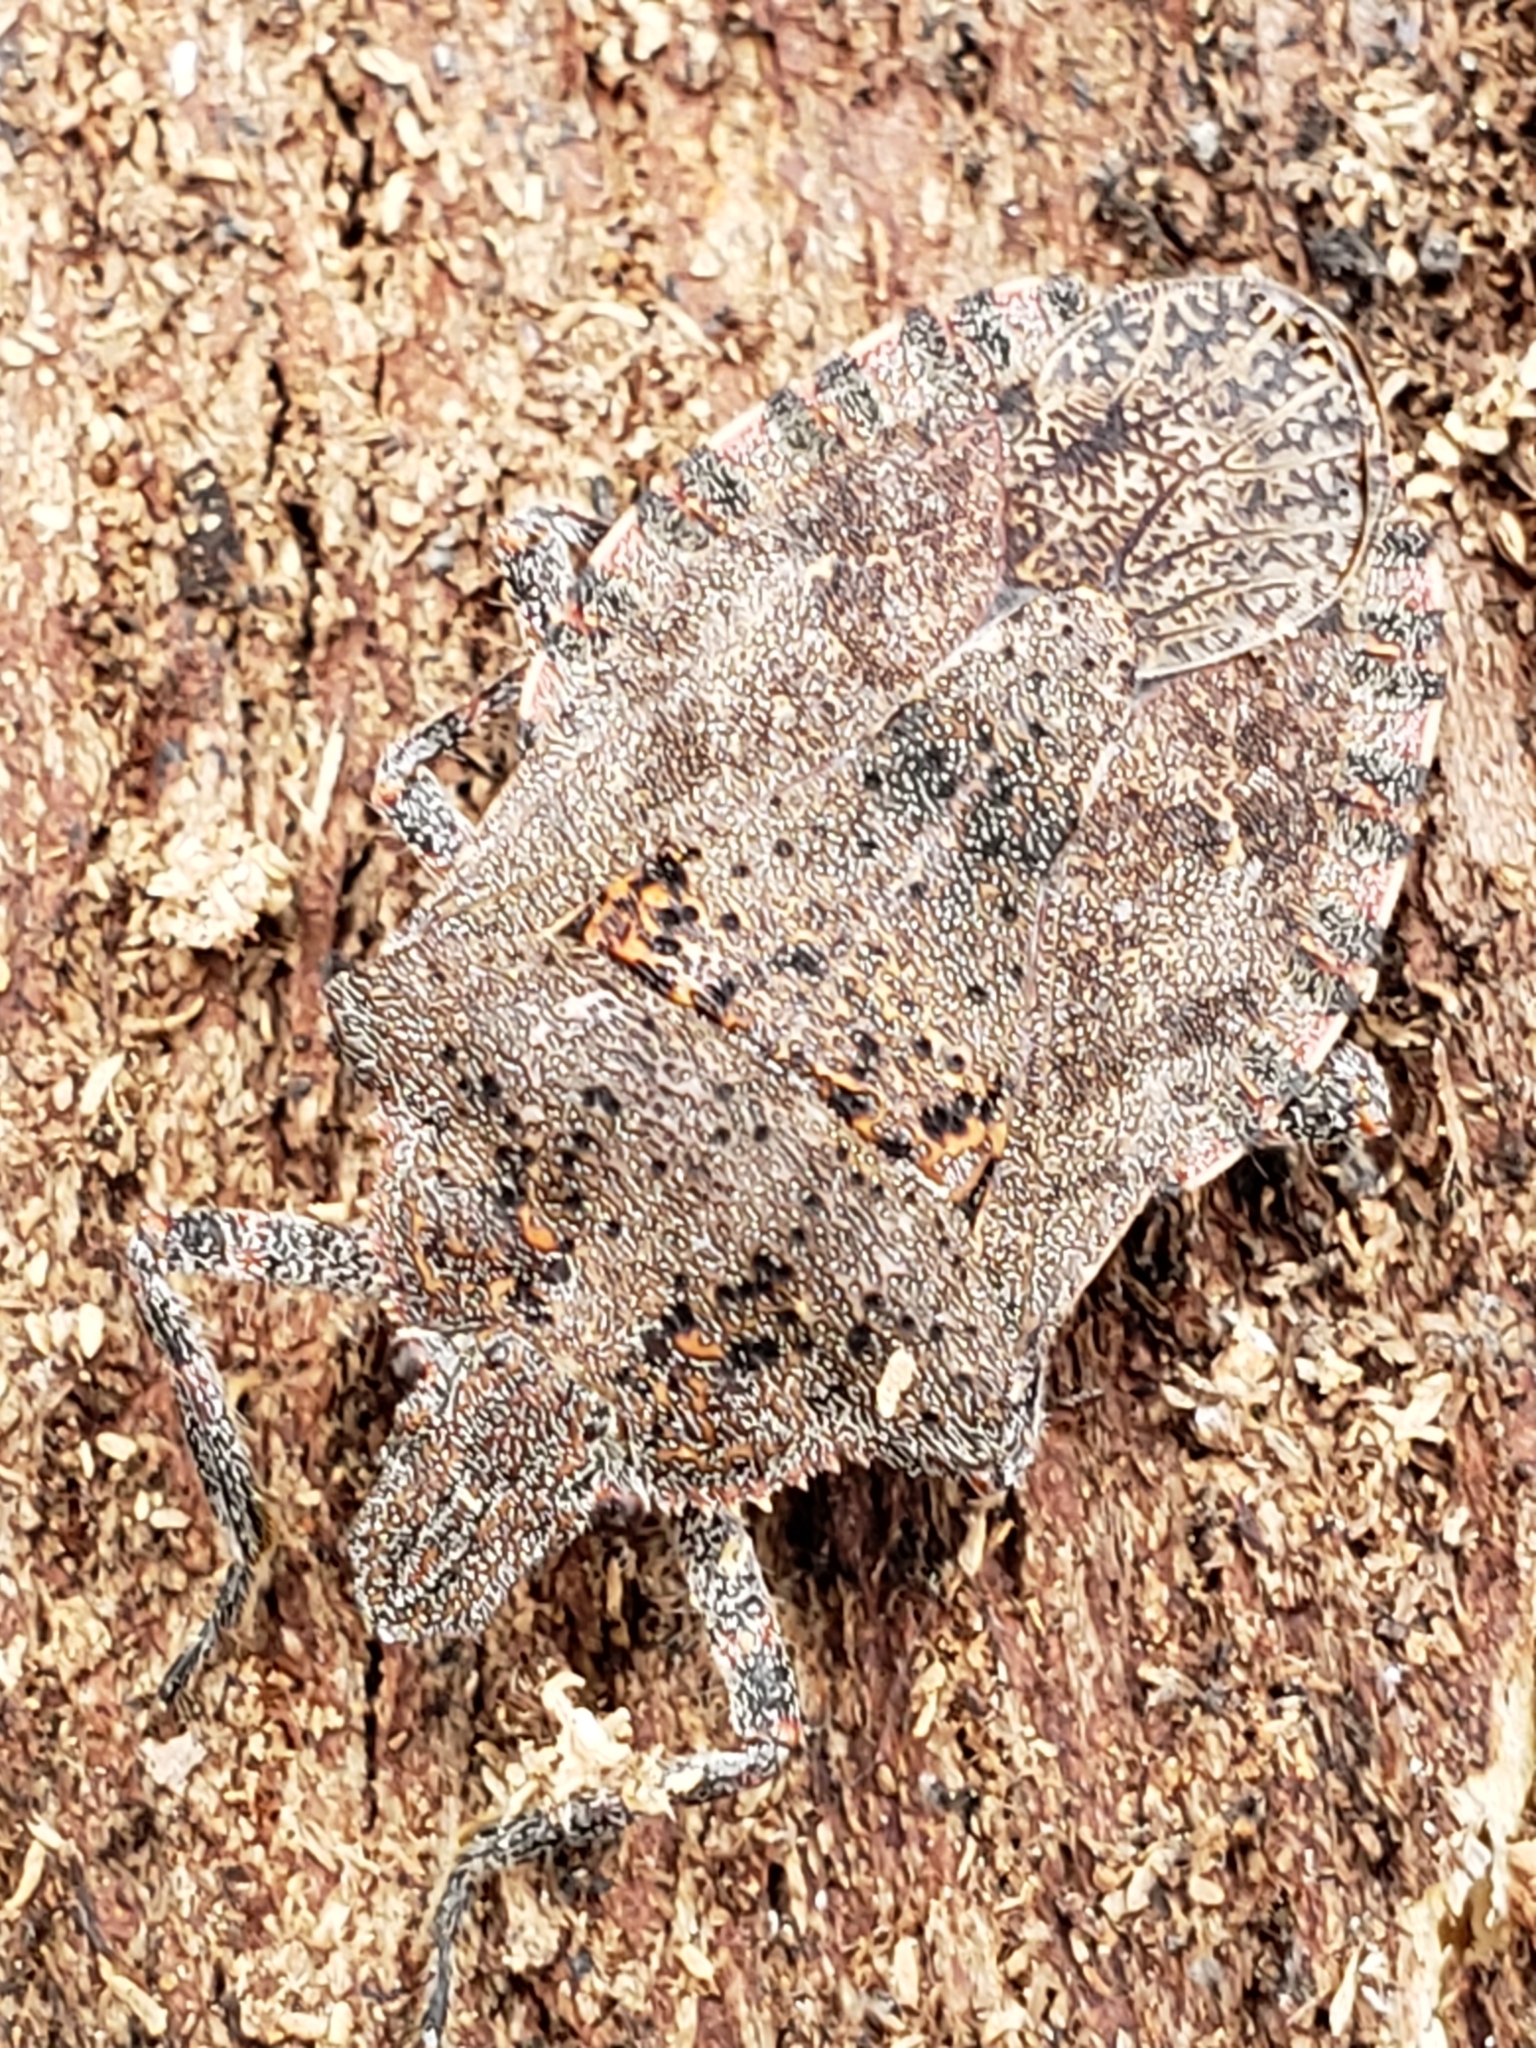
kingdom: Animalia
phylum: Arthropoda
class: Insecta
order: Hemiptera
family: Pentatomidae
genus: Brochymena
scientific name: Brochymena quadripustulata
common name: Four-humped stink bug
